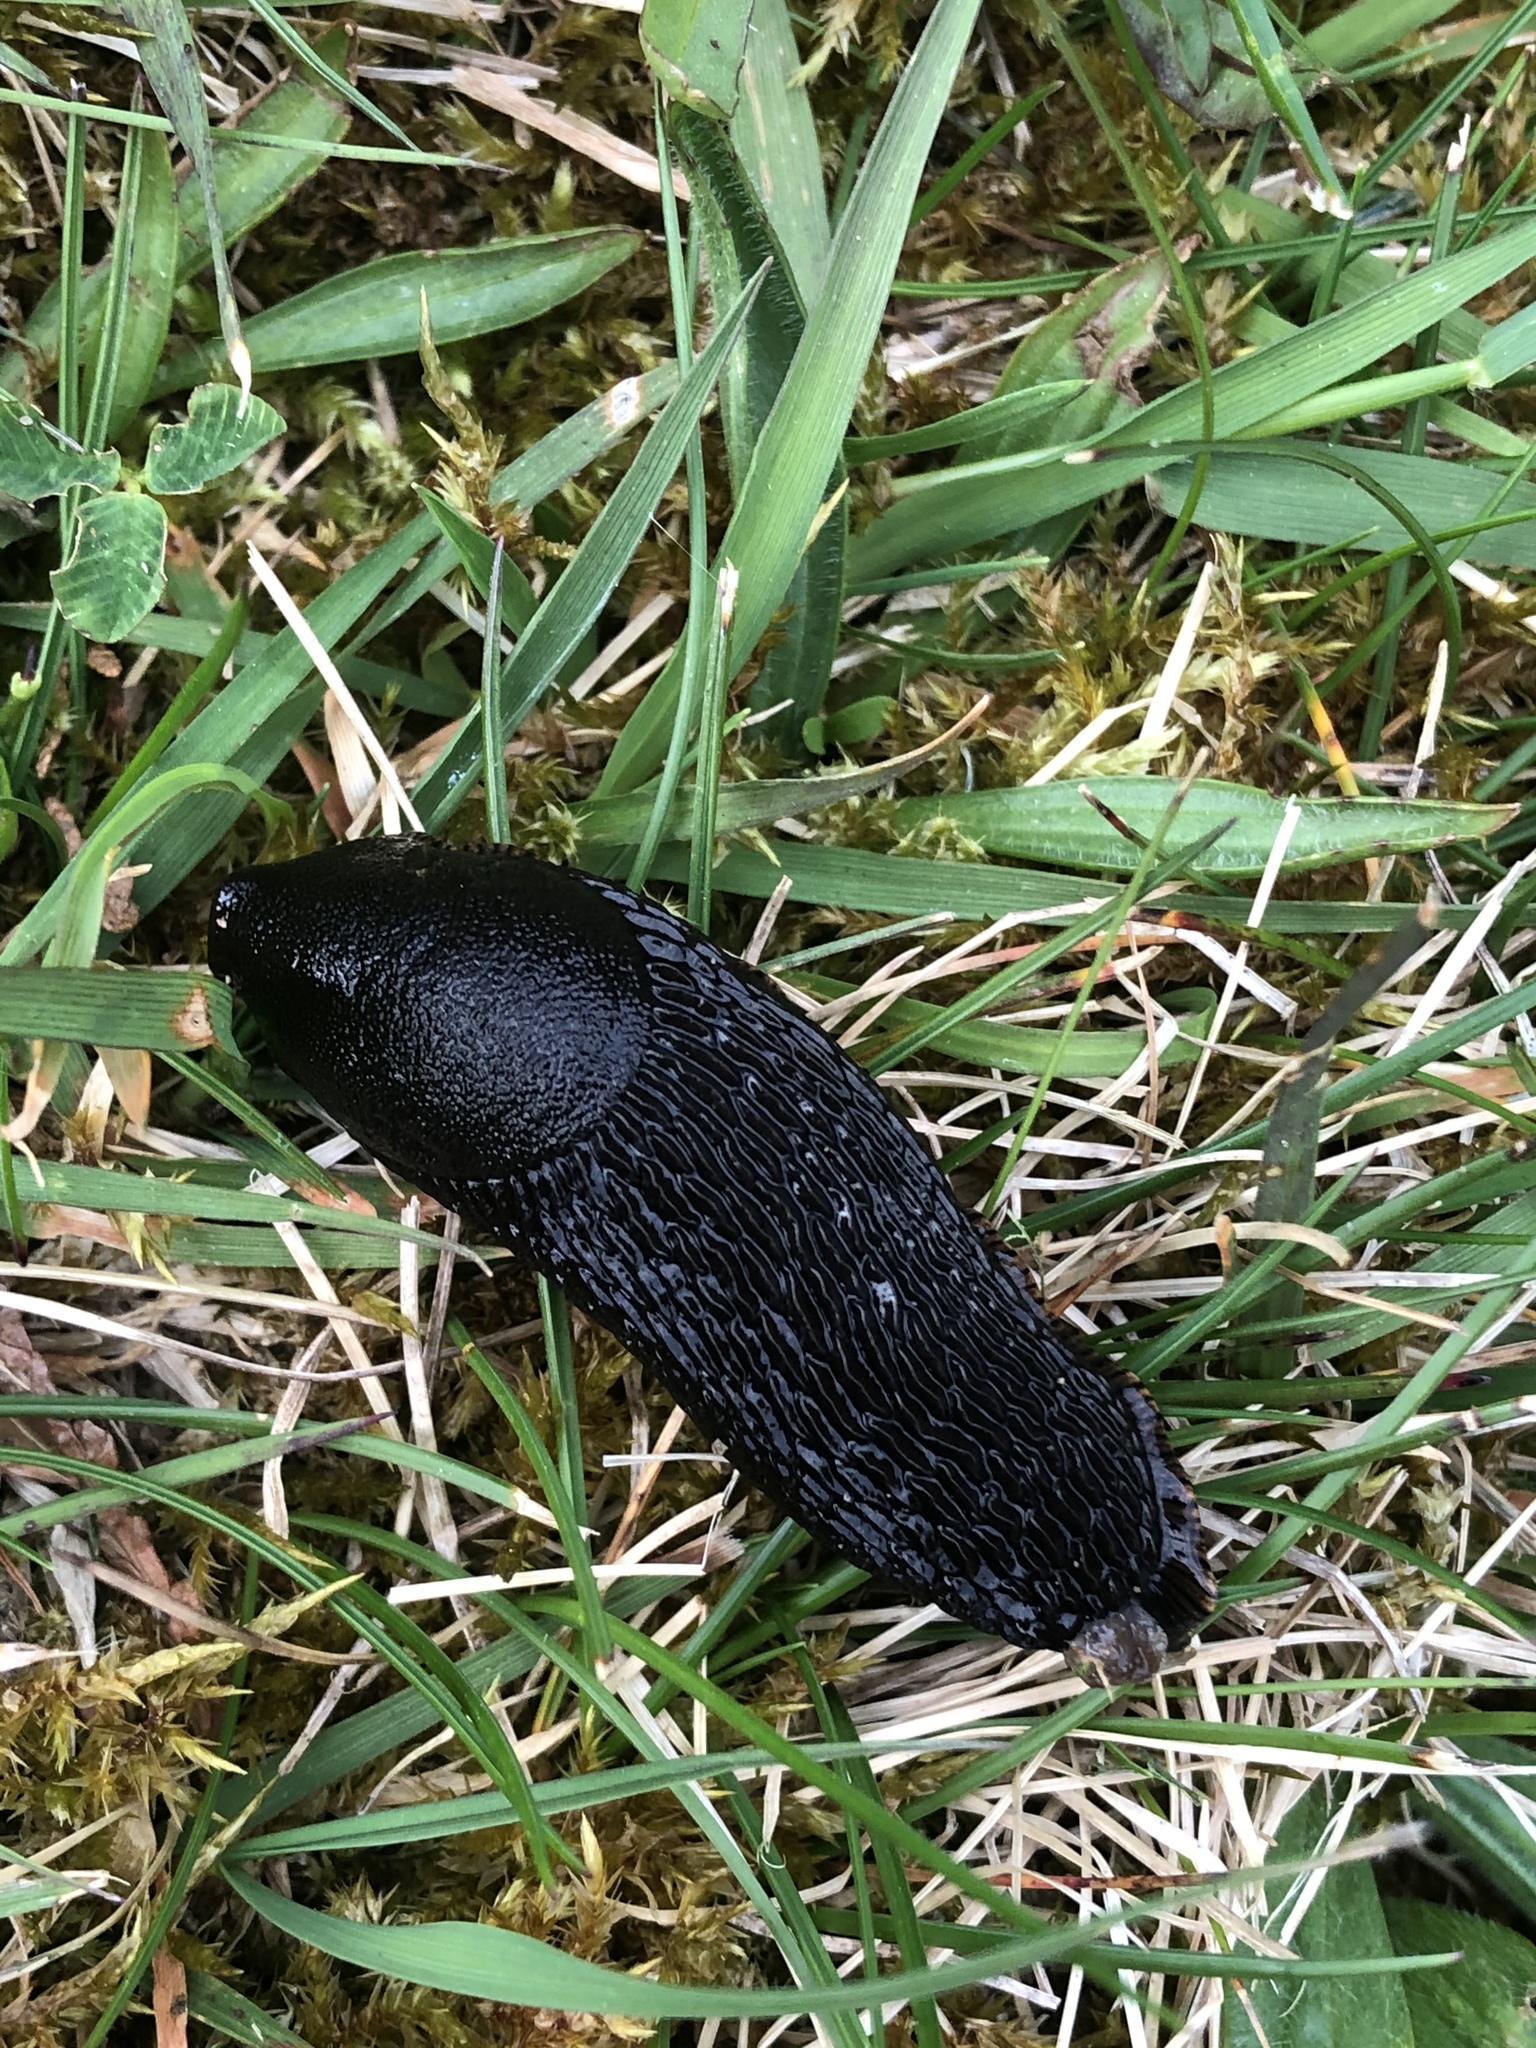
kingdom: Animalia
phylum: Mollusca
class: Gastropoda
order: Stylommatophora
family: Arionidae
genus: Arion
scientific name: Arion rufus
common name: Chocolate arion
